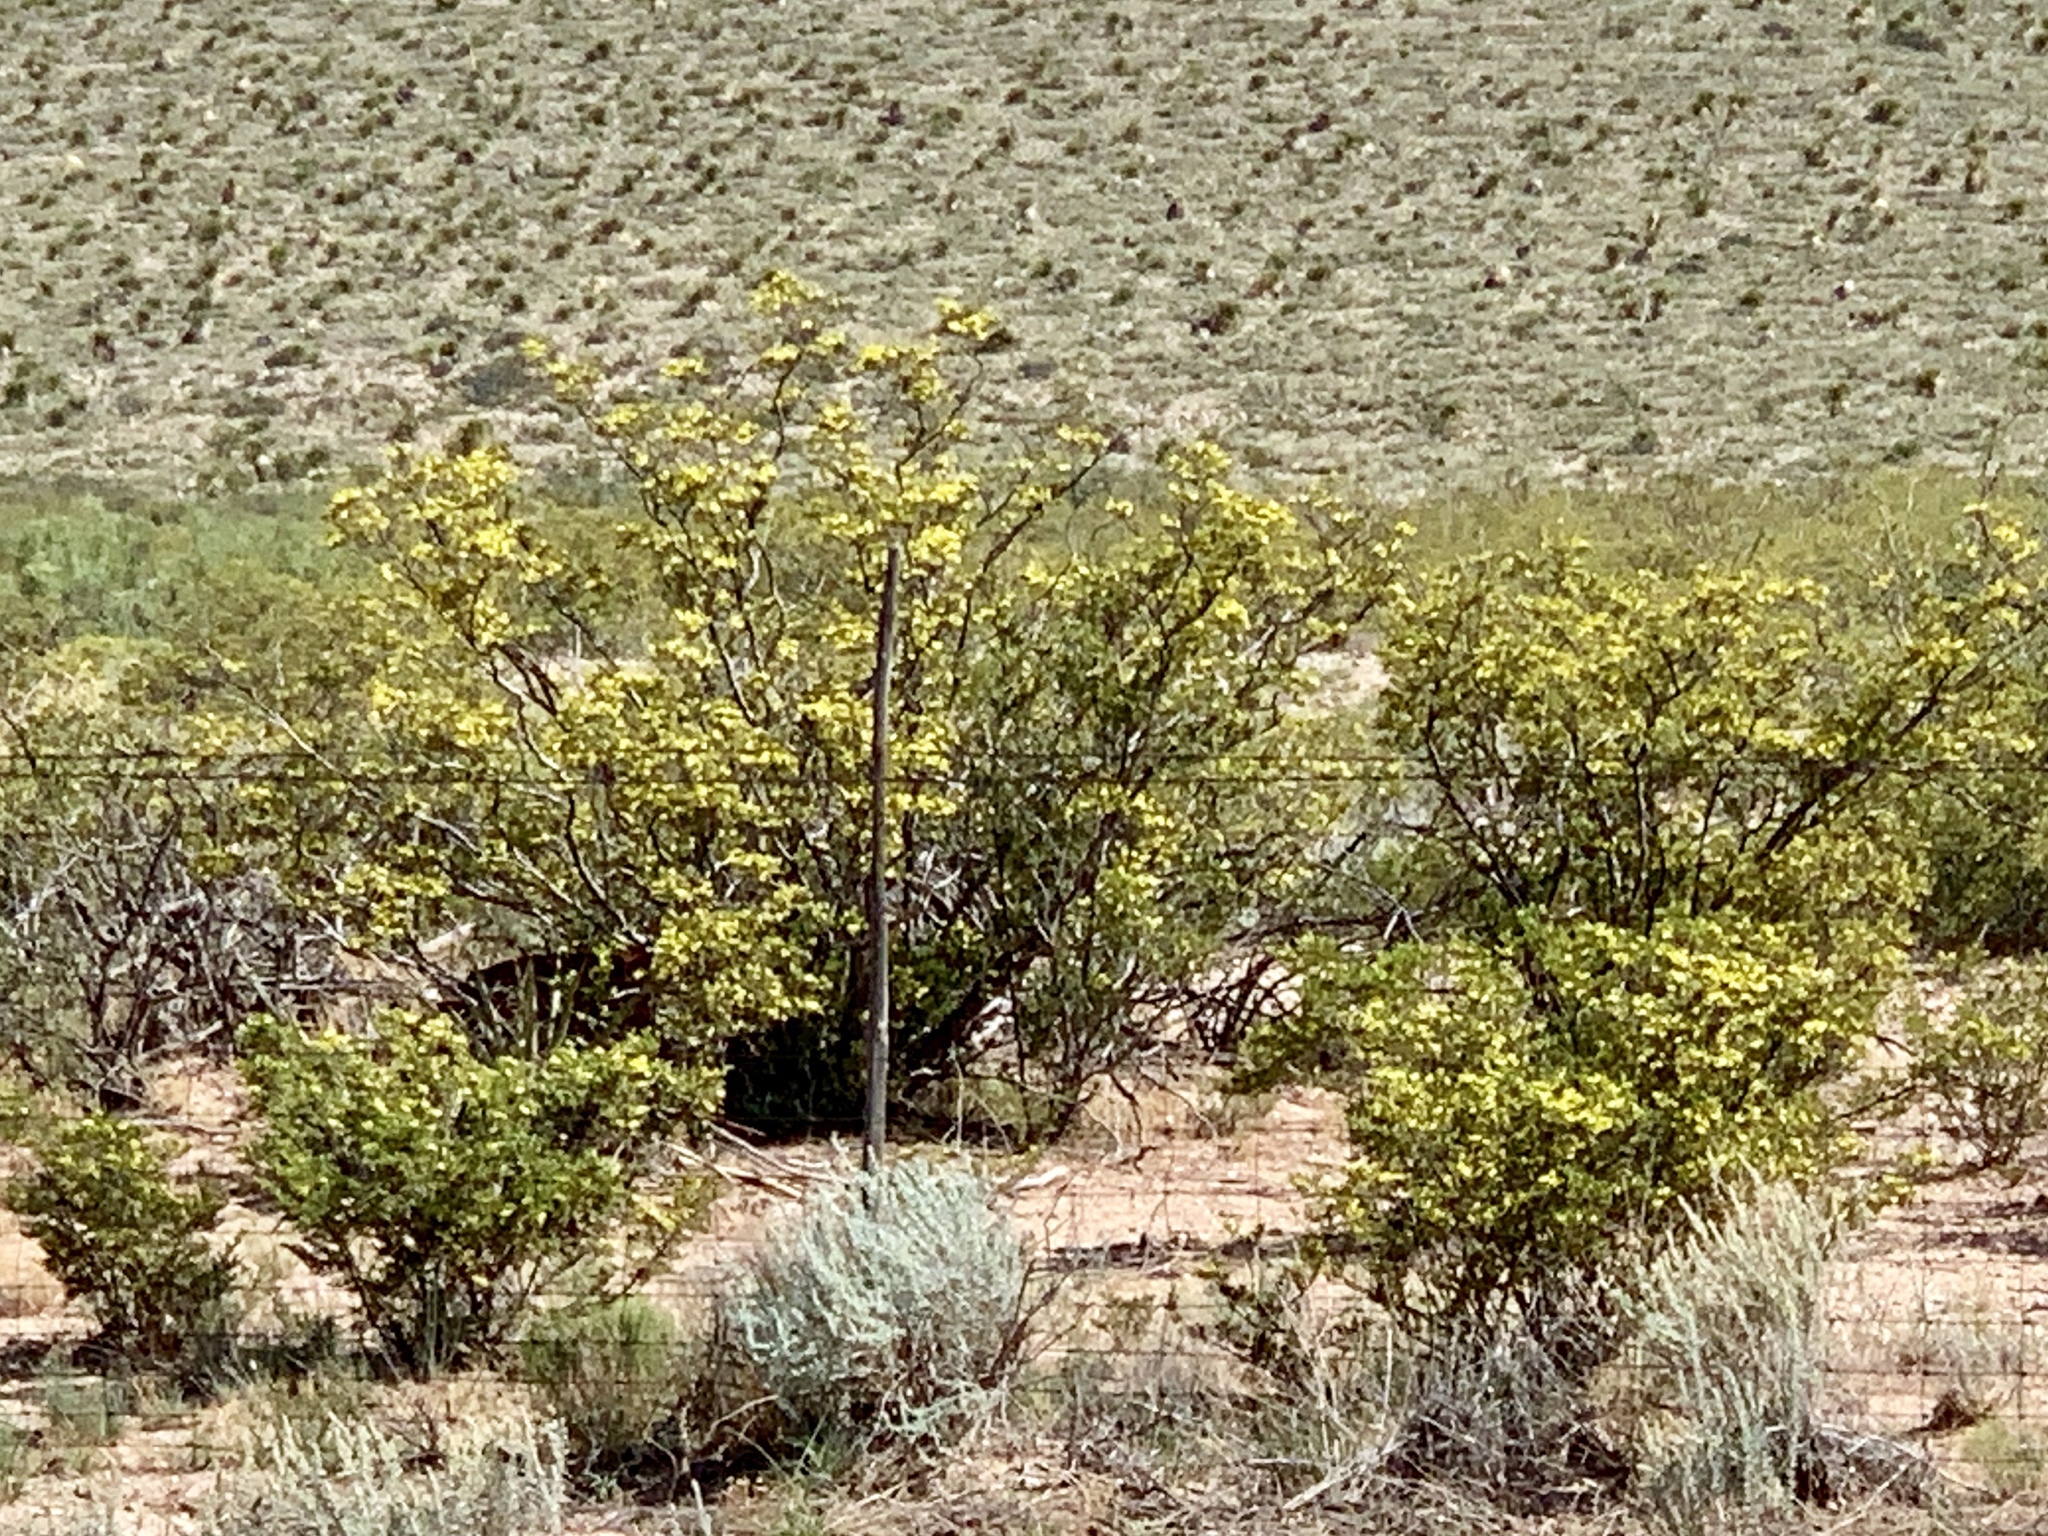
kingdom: Plantae
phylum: Tracheophyta
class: Magnoliopsida
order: Zygophyllales
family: Zygophyllaceae
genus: Larrea
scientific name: Larrea tridentata
